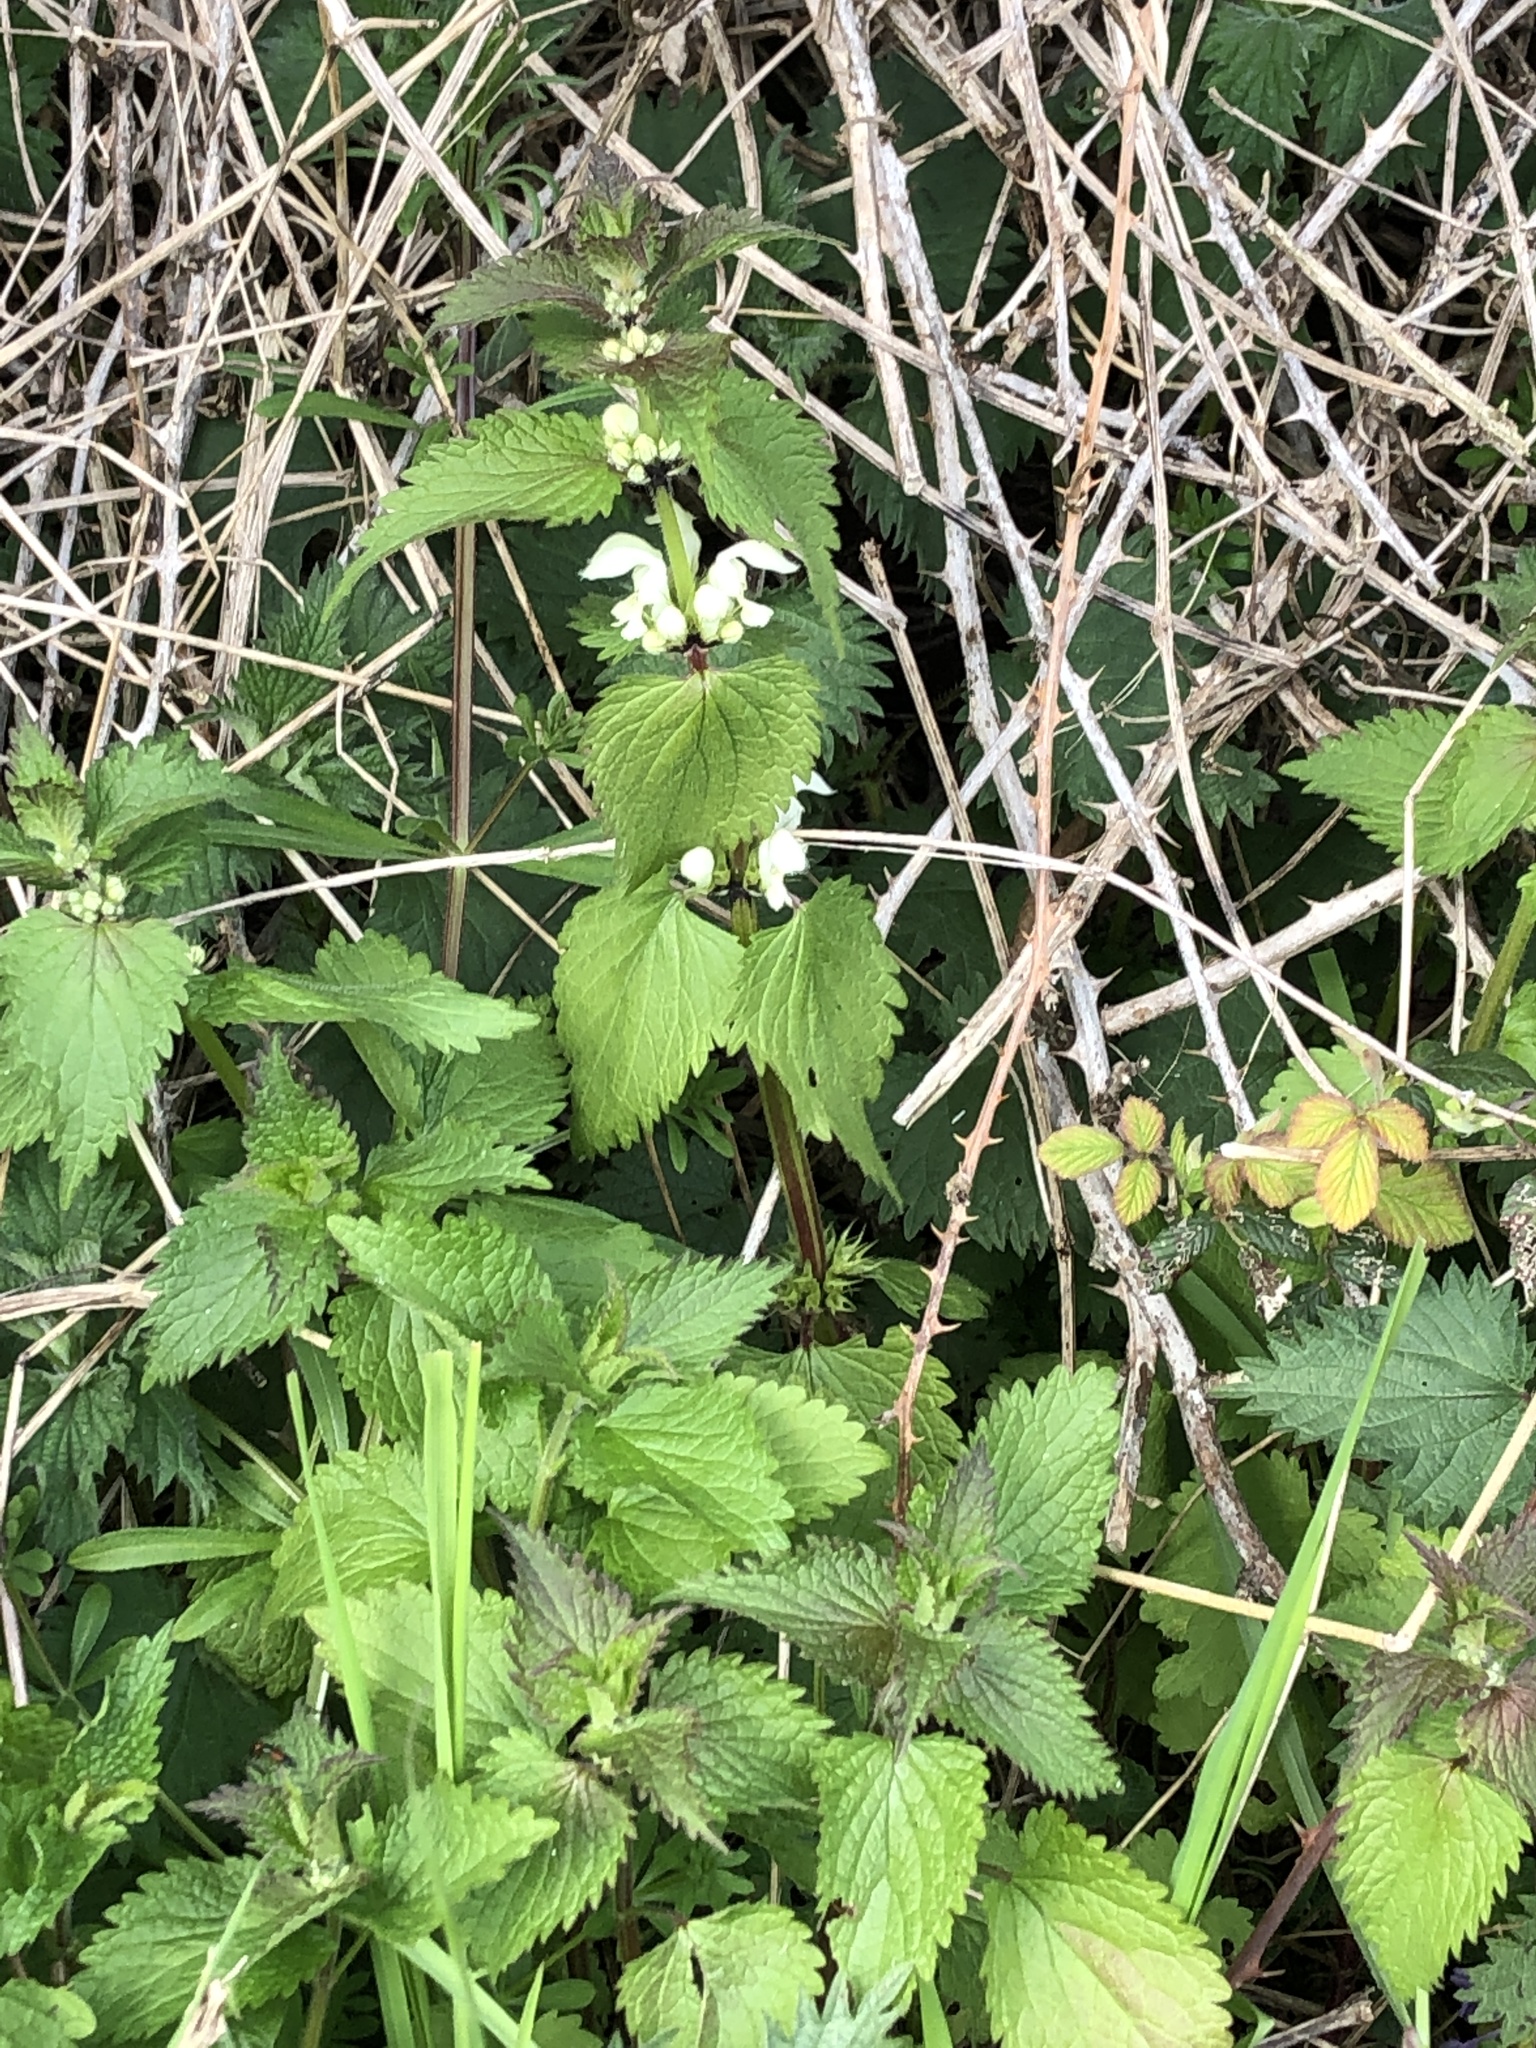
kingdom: Plantae
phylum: Tracheophyta
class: Magnoliopsida
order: Lamiales
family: Lamiaceae
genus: Lamium
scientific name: Lamium album
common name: White dead-nettle
